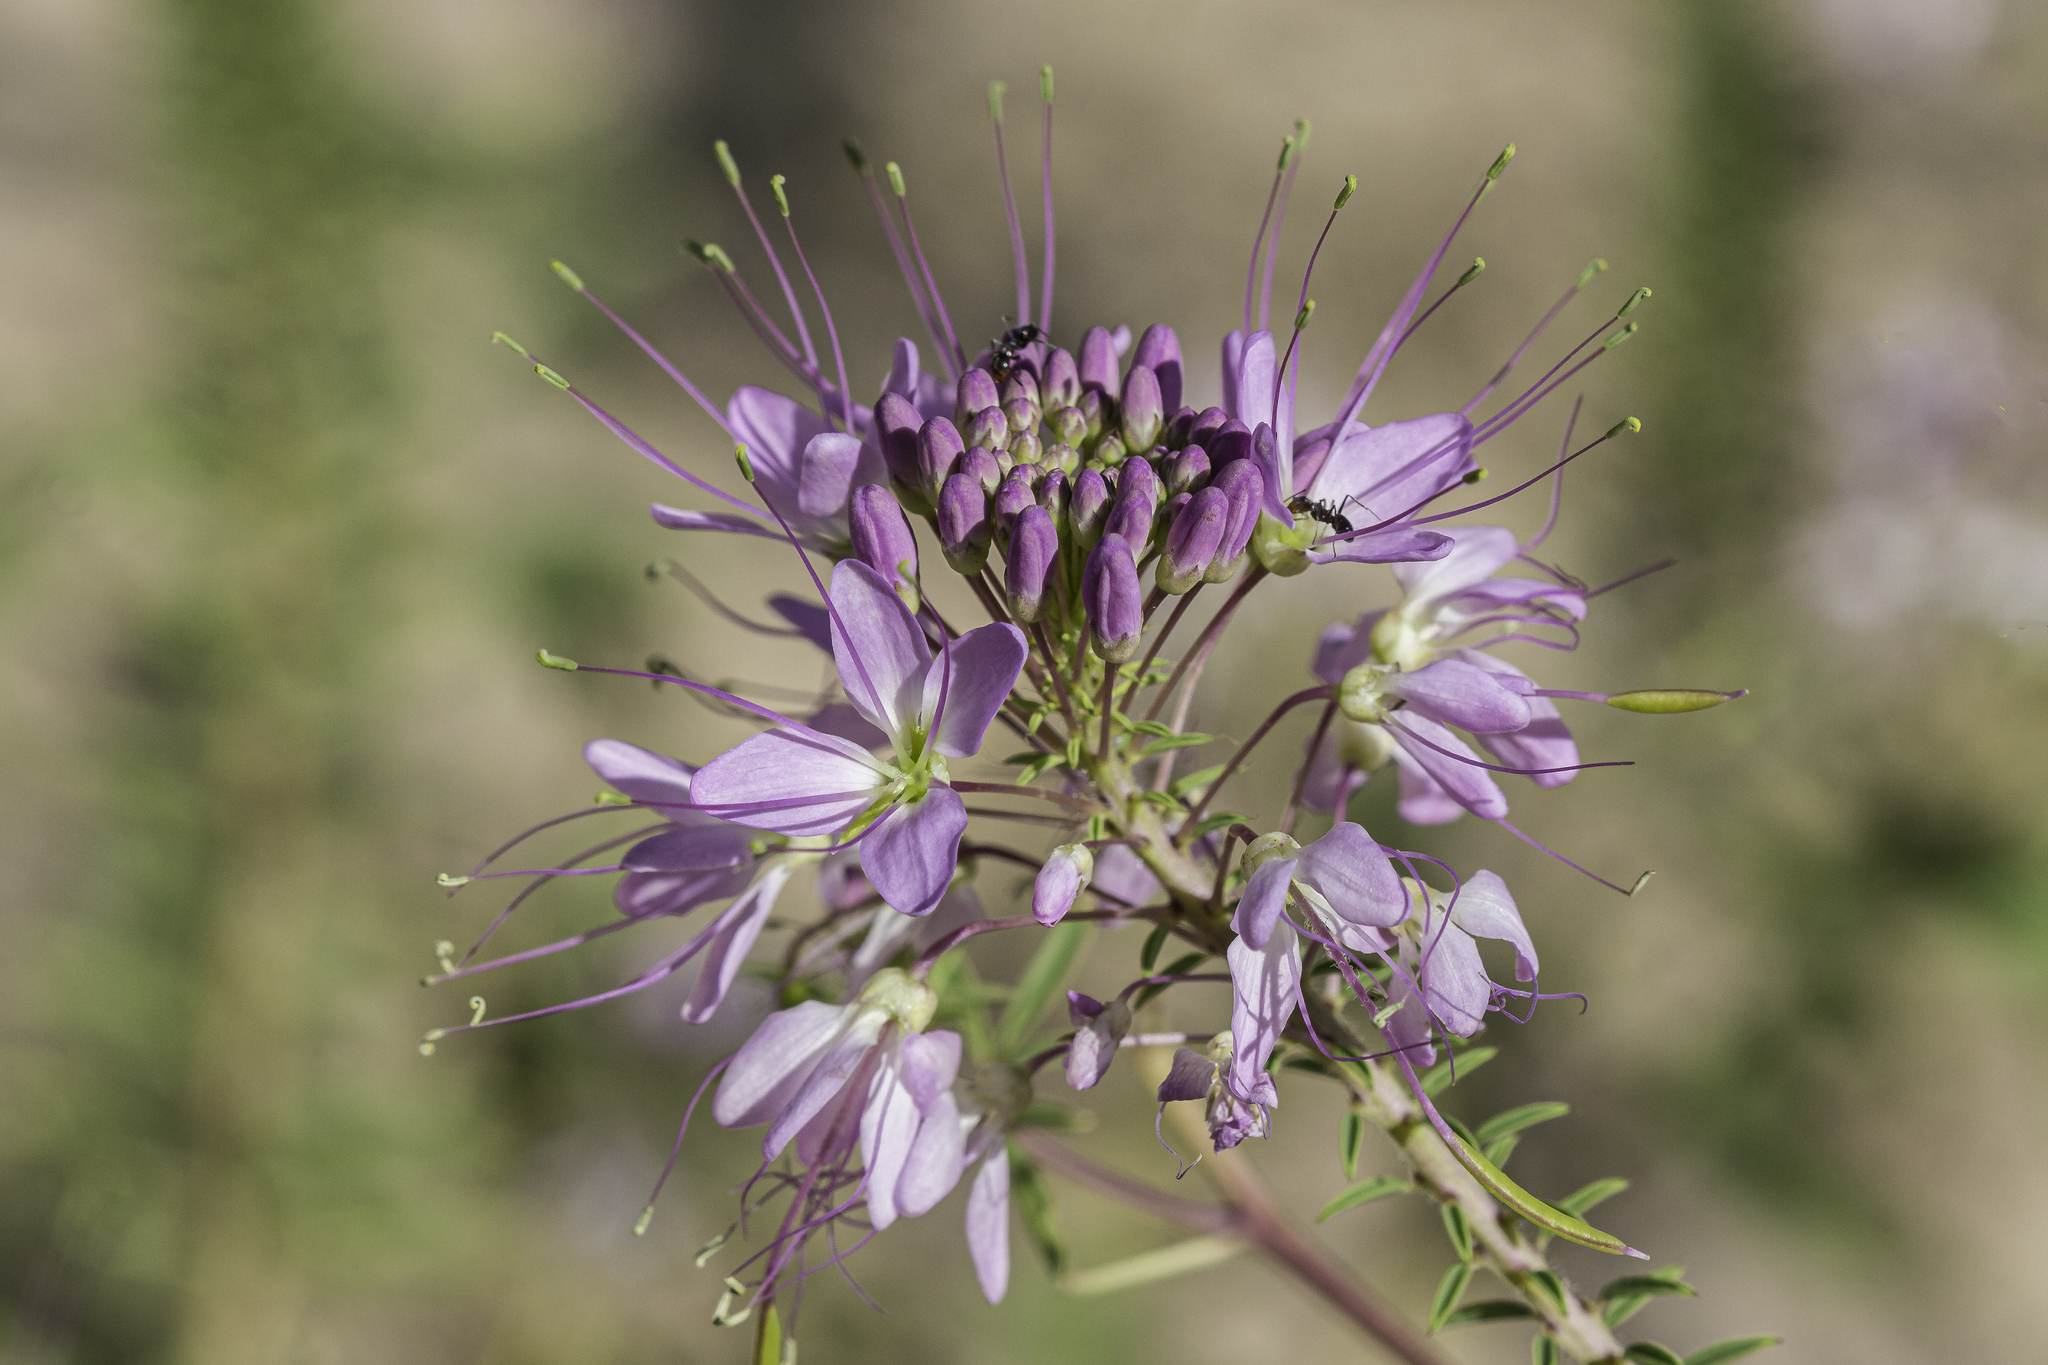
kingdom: Plantae
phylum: Tracheophyta
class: Magnoliopsida
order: Brassicales
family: Cleomaceae
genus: Cleomella
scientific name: Cleomella serrulata
